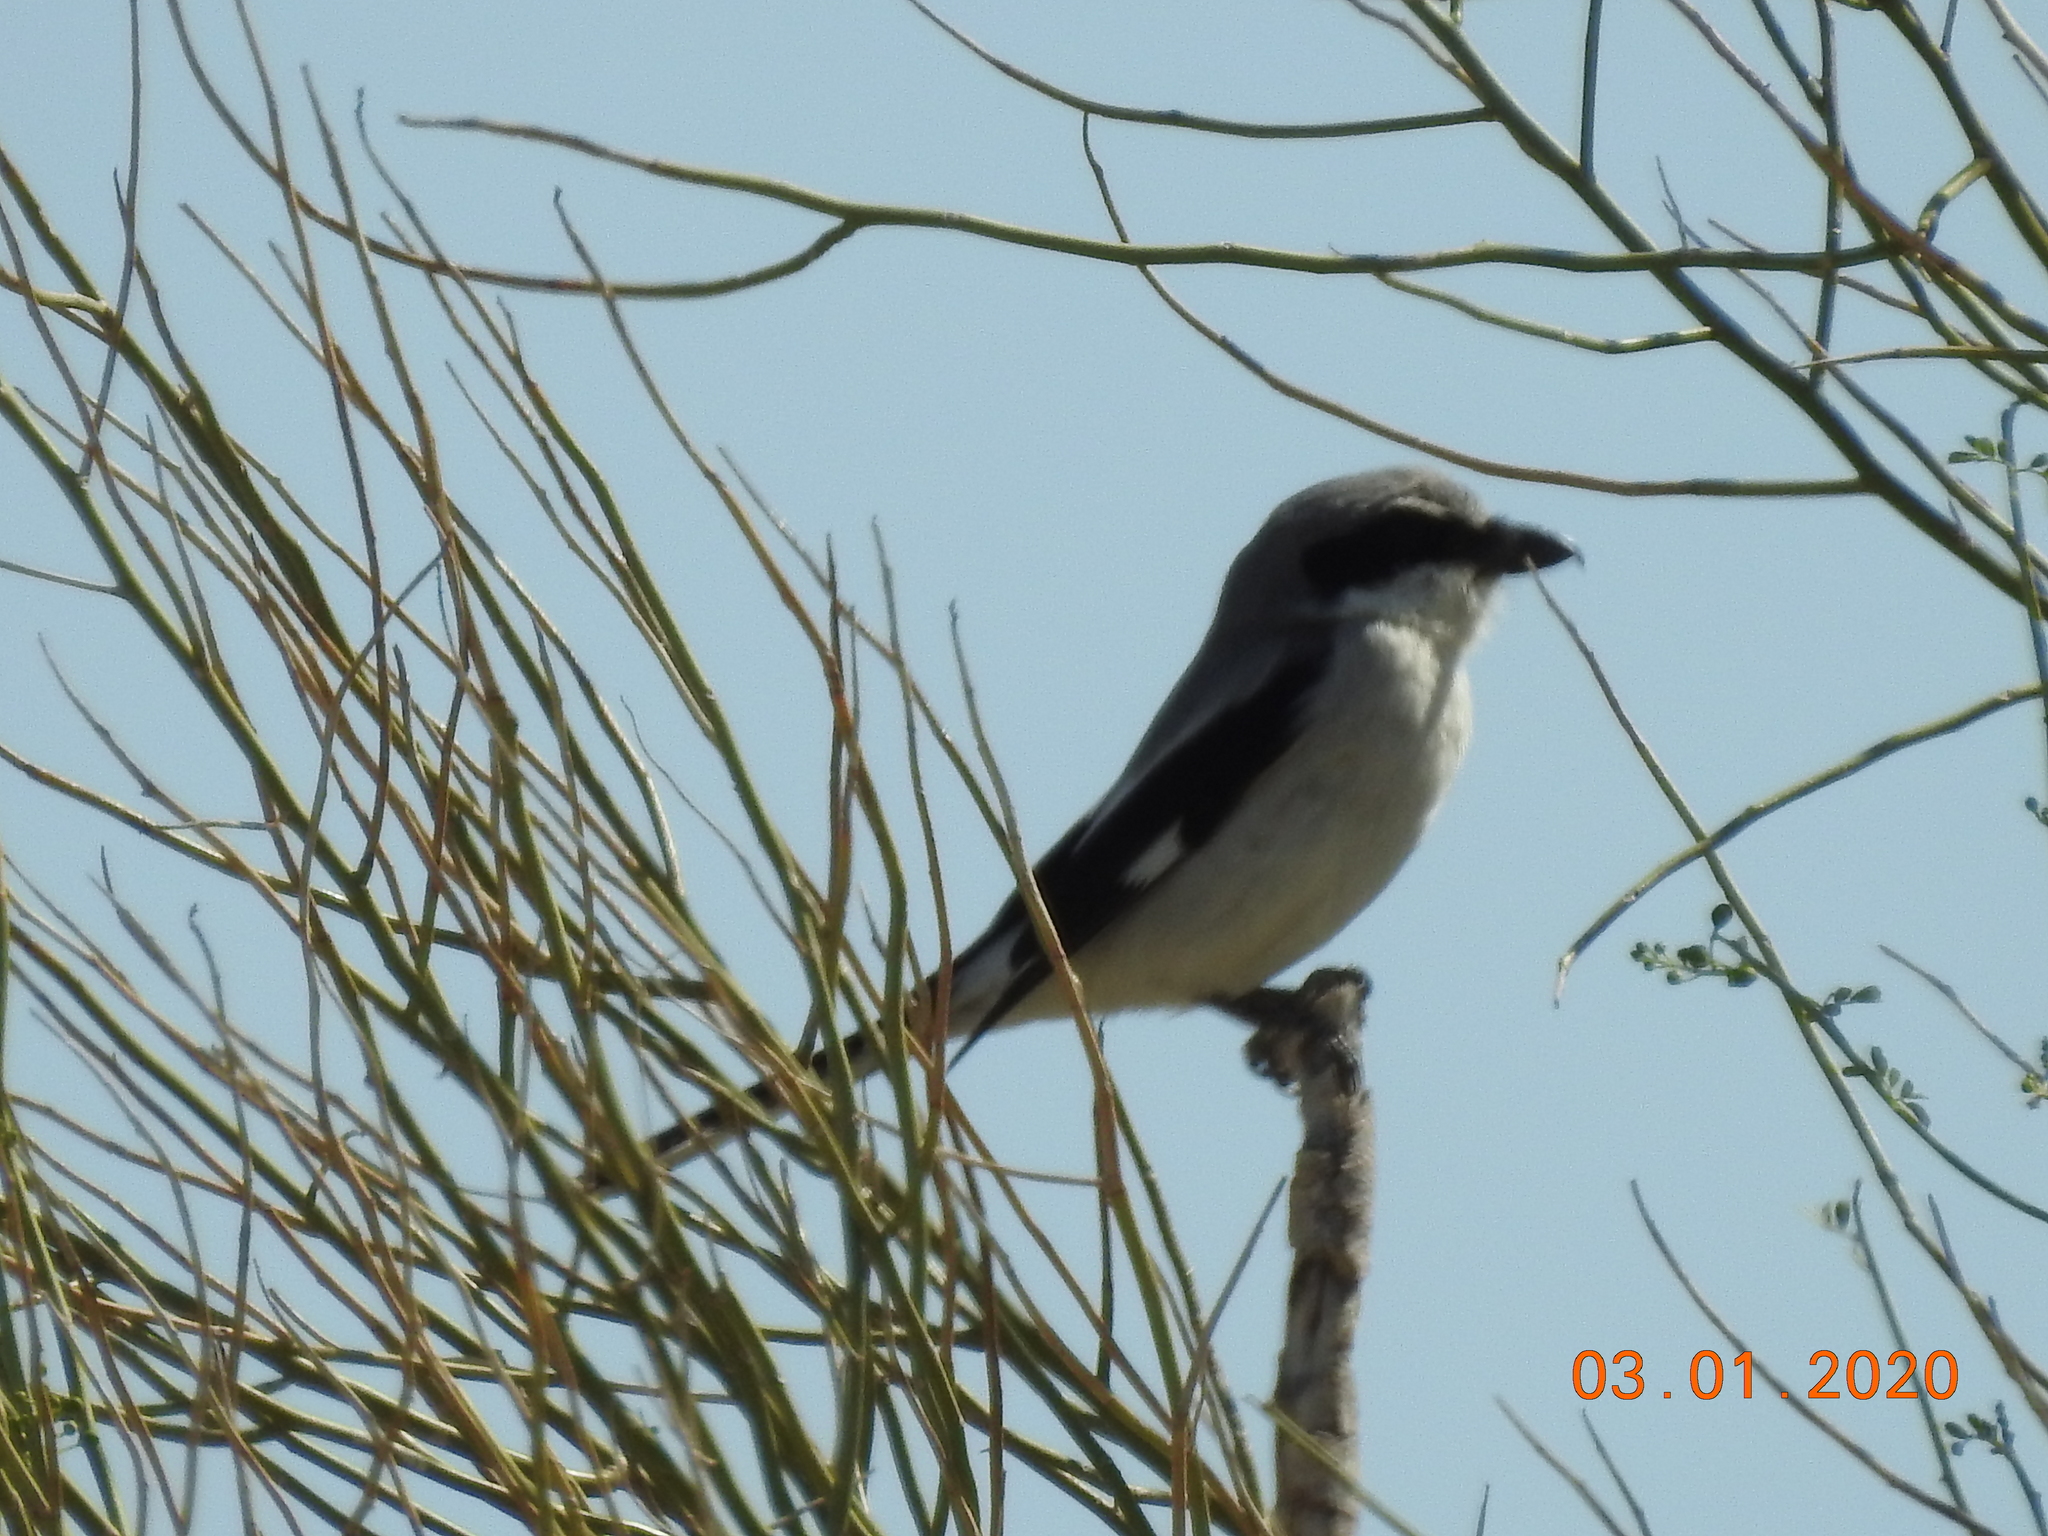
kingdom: Animalia
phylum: Chordata
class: Aves
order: Passeriformes
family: Laniidae
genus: Lanius
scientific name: Lanius ludovicianus
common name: Loggerhead shrike
